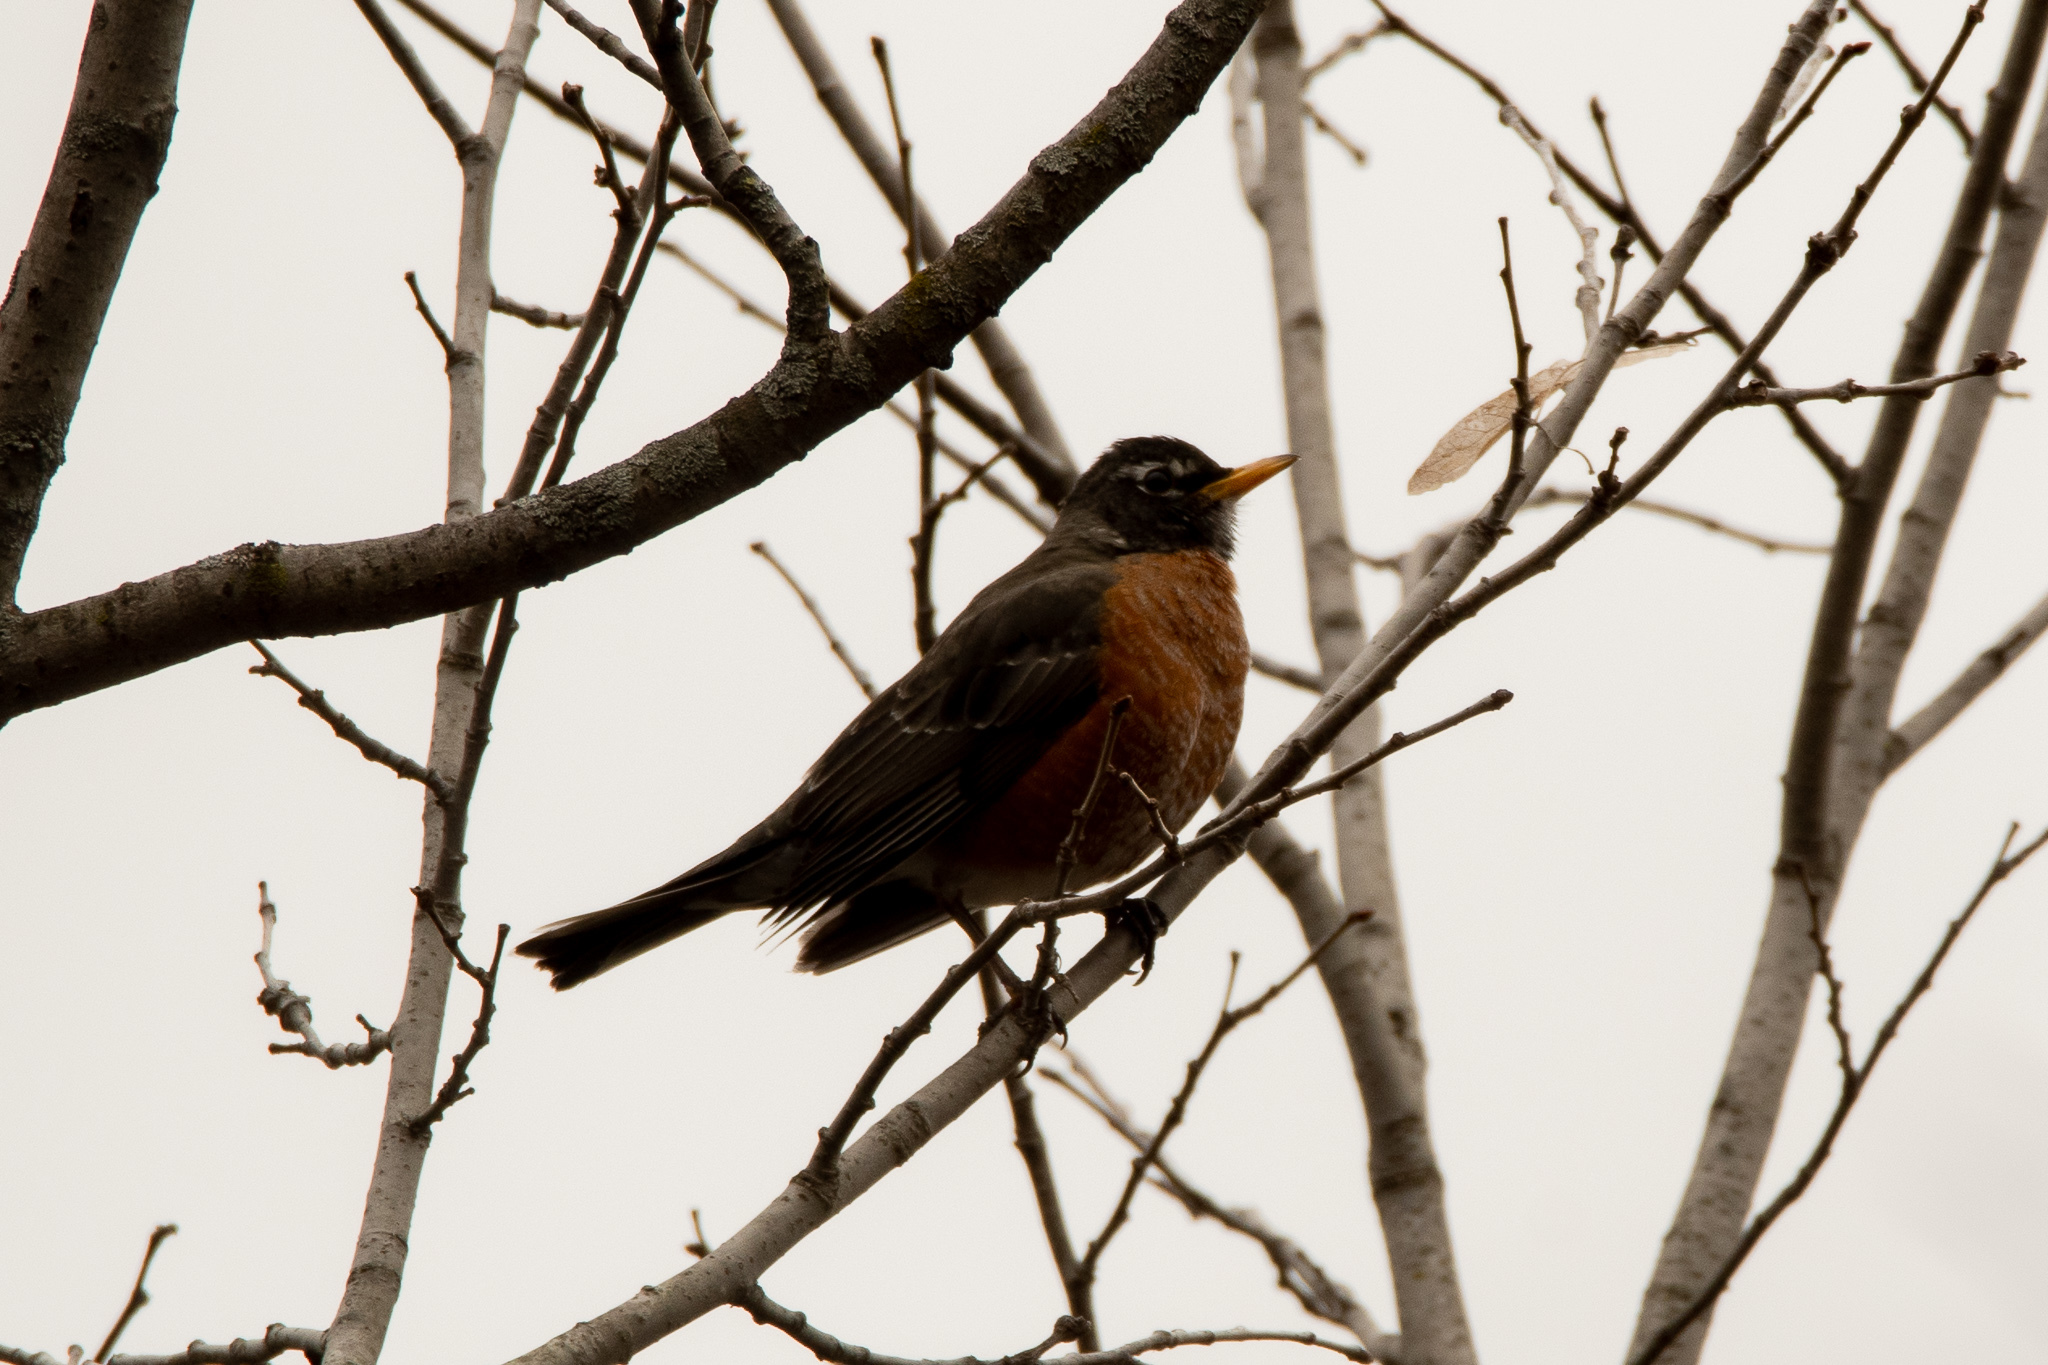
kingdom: Animalia
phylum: Chordata
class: Aves
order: Passeriformes
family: Turdidae
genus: Turdus
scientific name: Turdus migratorius
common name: American robin
